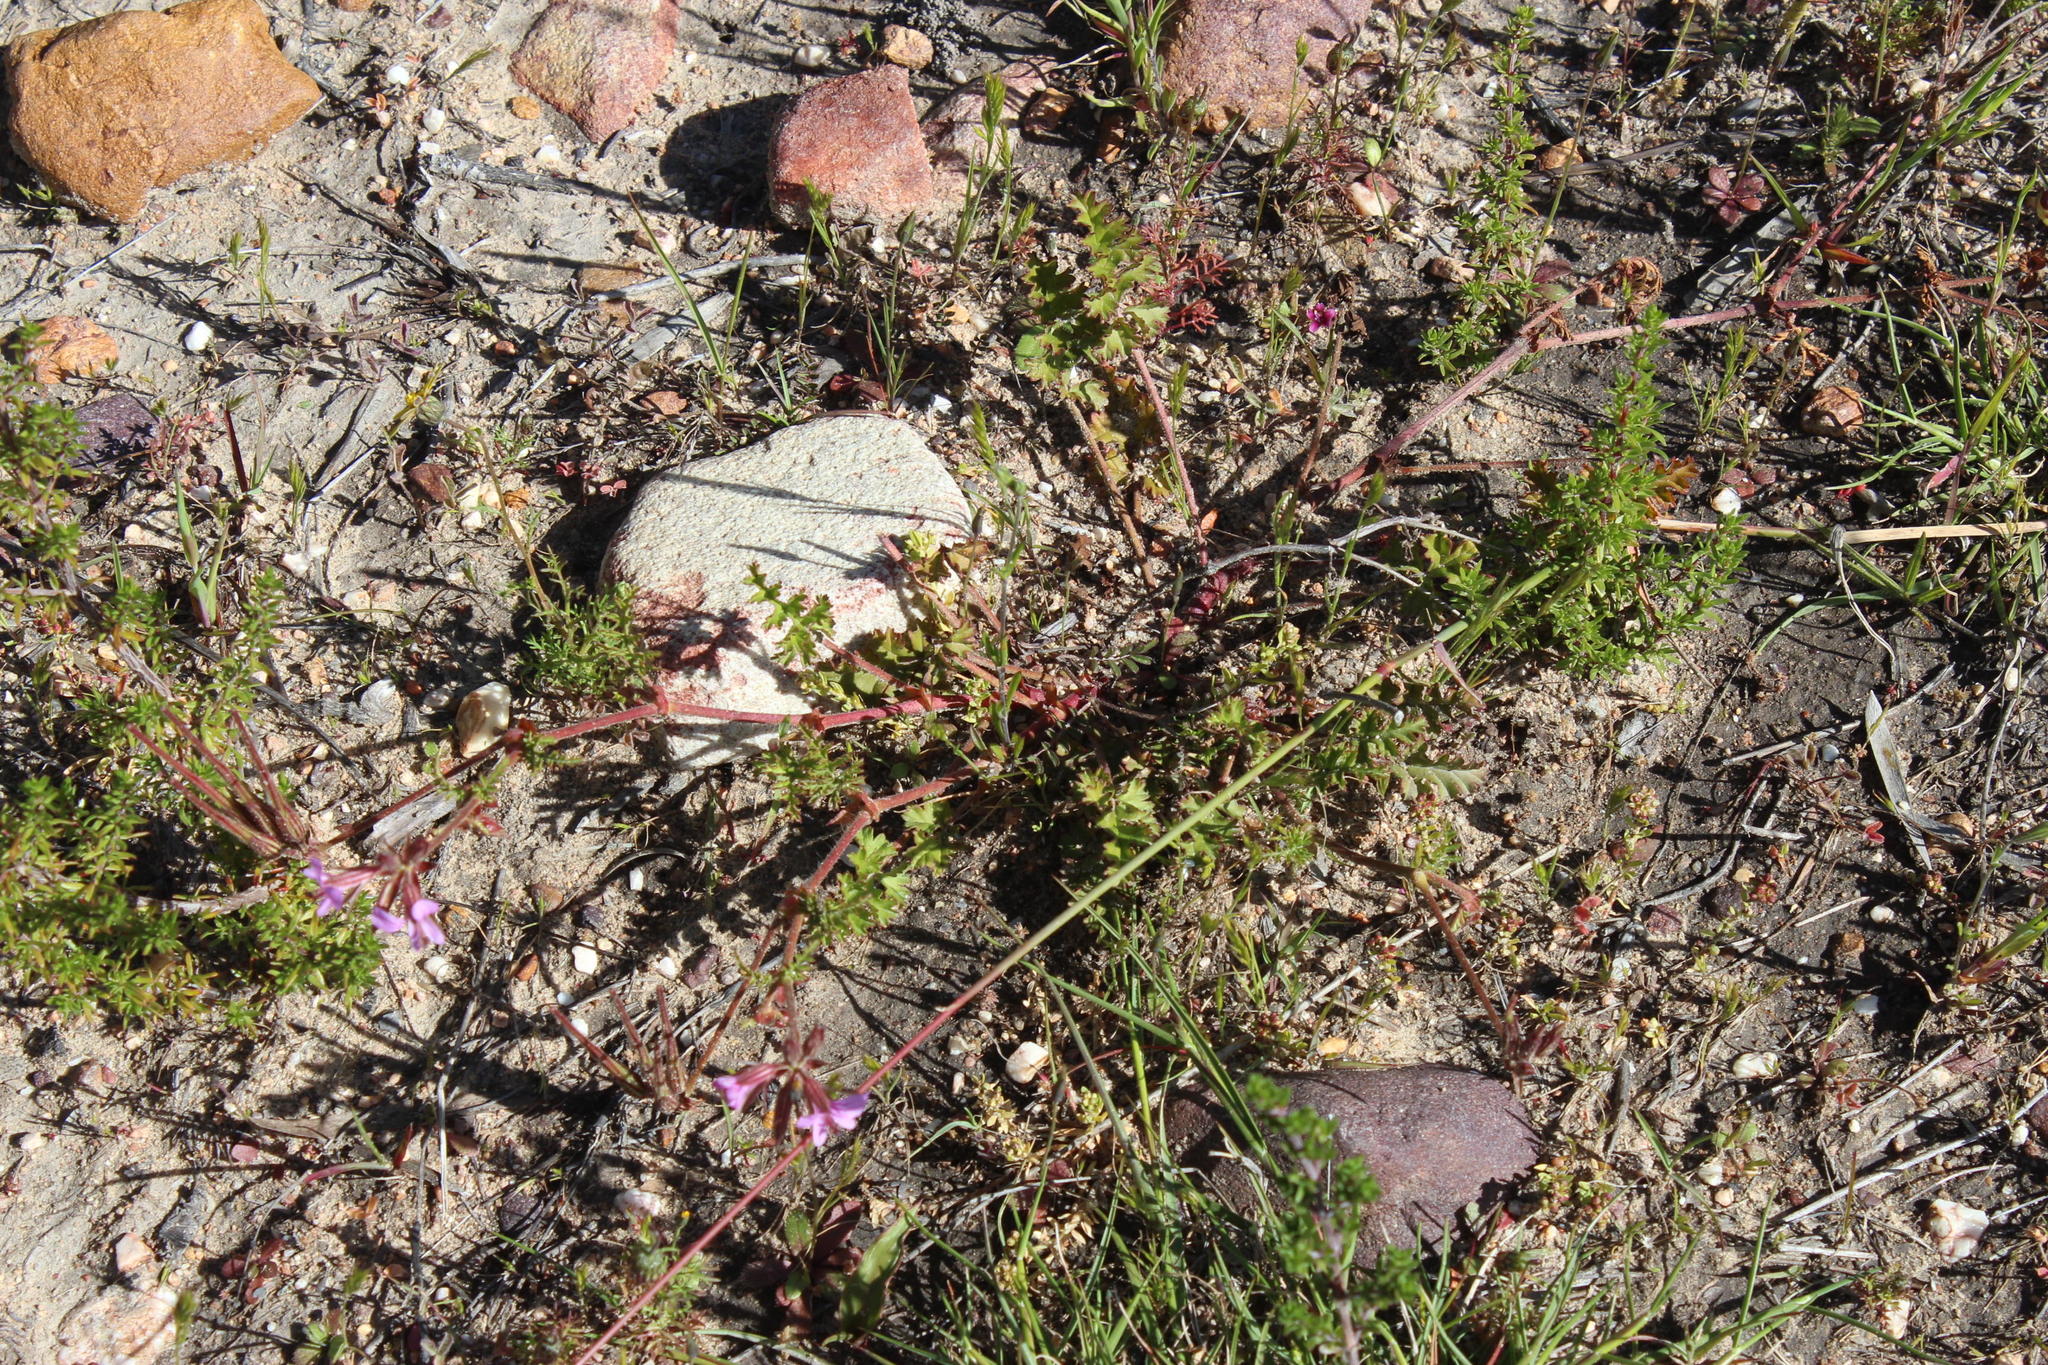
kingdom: Plantae
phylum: Tracheophyta
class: Magnoliopsida
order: Geraniales
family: Geraniaceae
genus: Pelargonium
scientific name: Pelargonium myrrhifolium
